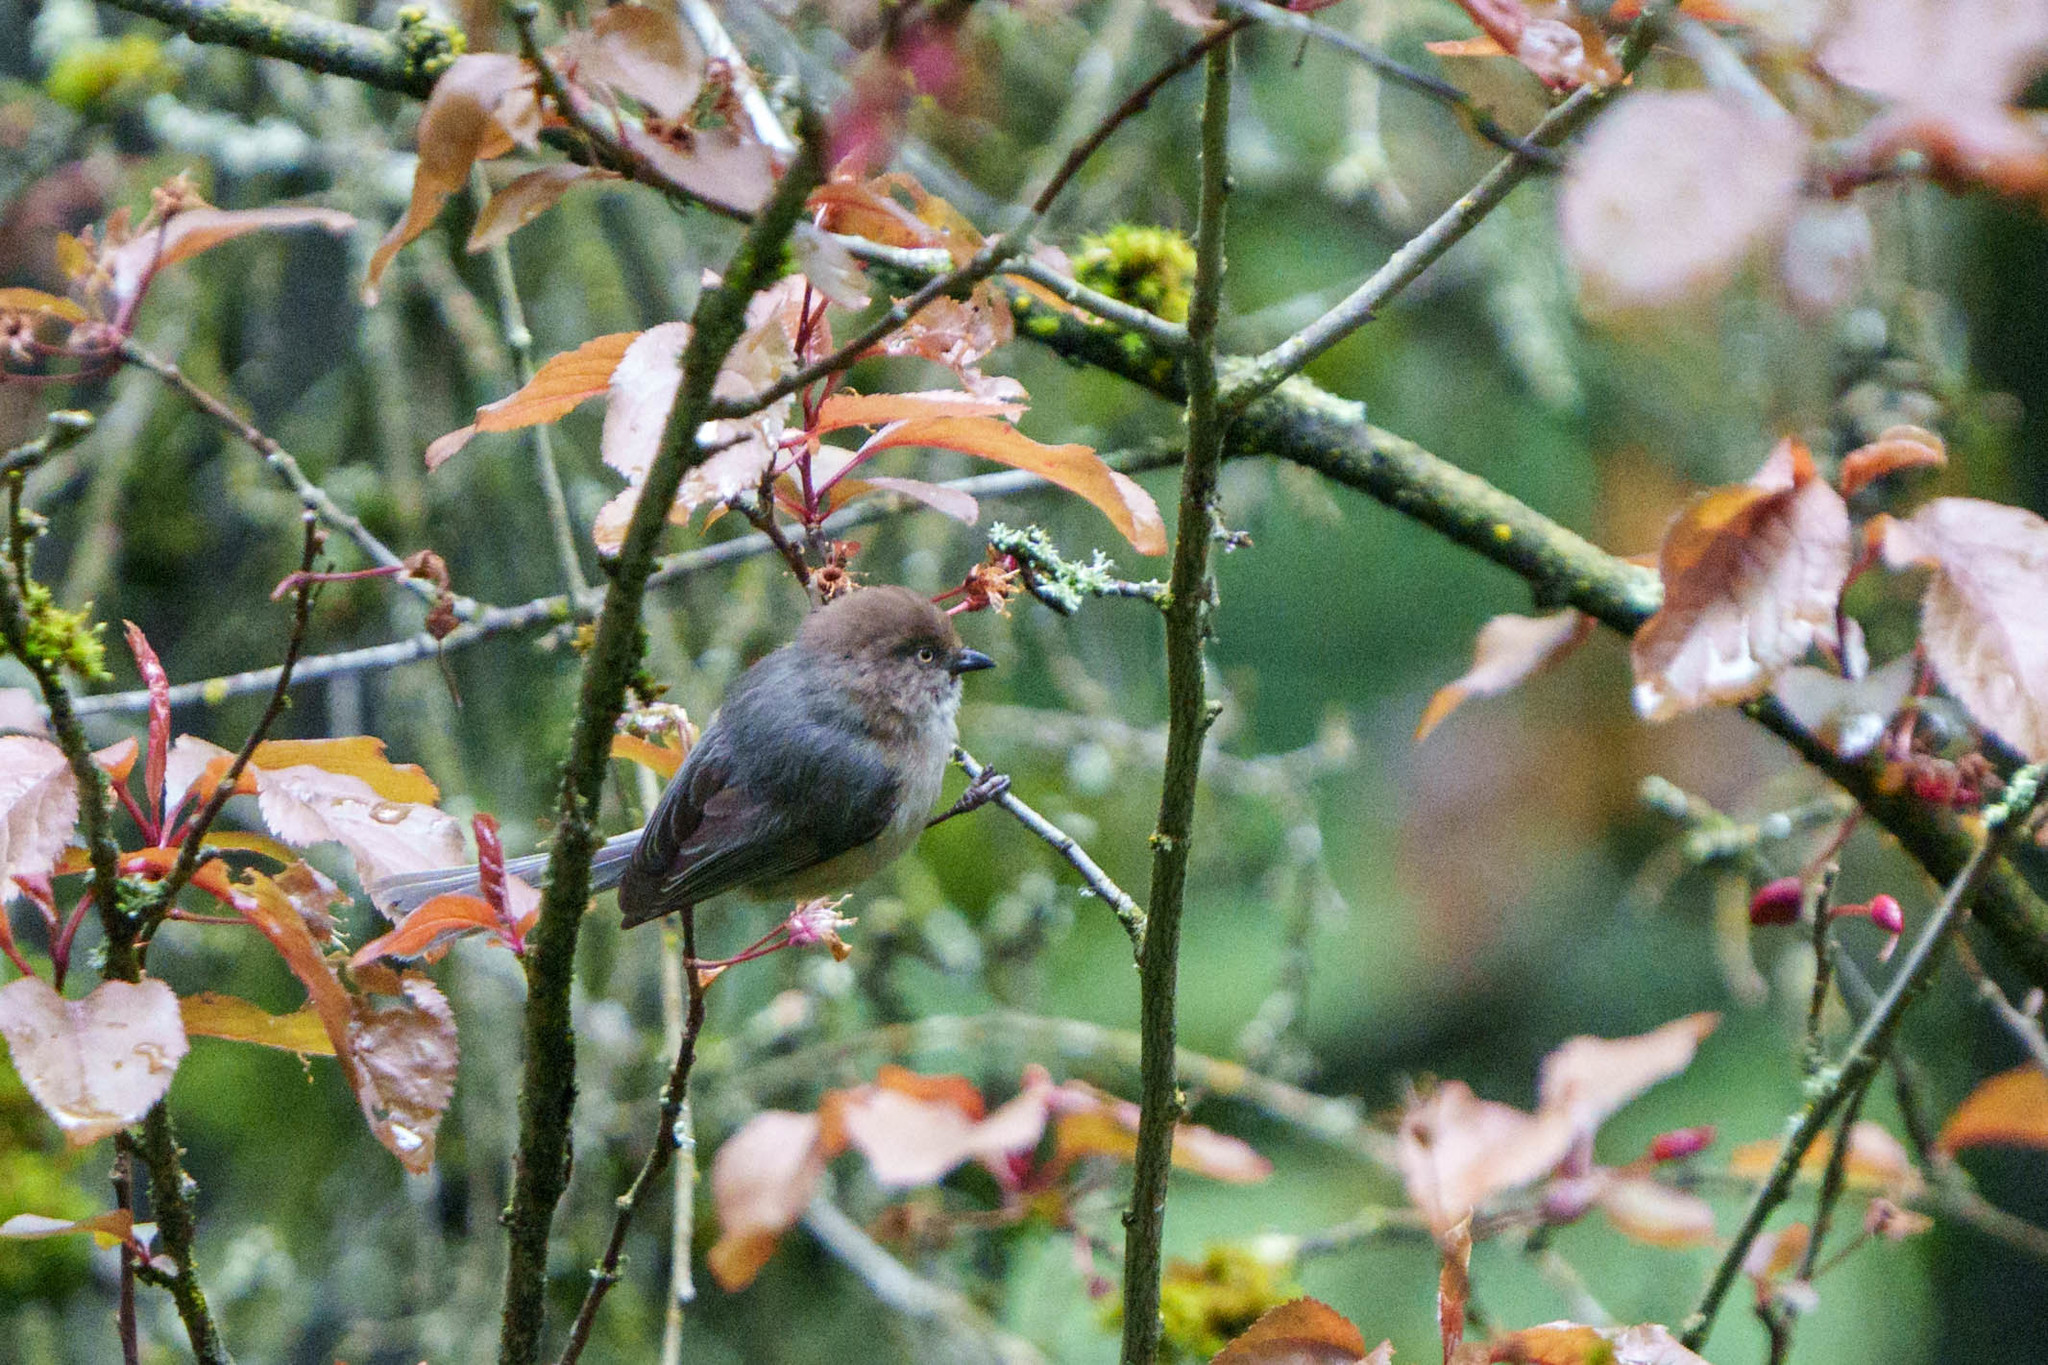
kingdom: Animalia
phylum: Chordata
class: Aves
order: Passeriformes
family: Aegithalidae
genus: Psaltriparus
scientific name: Psaltriparus minimus
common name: American bushtit
